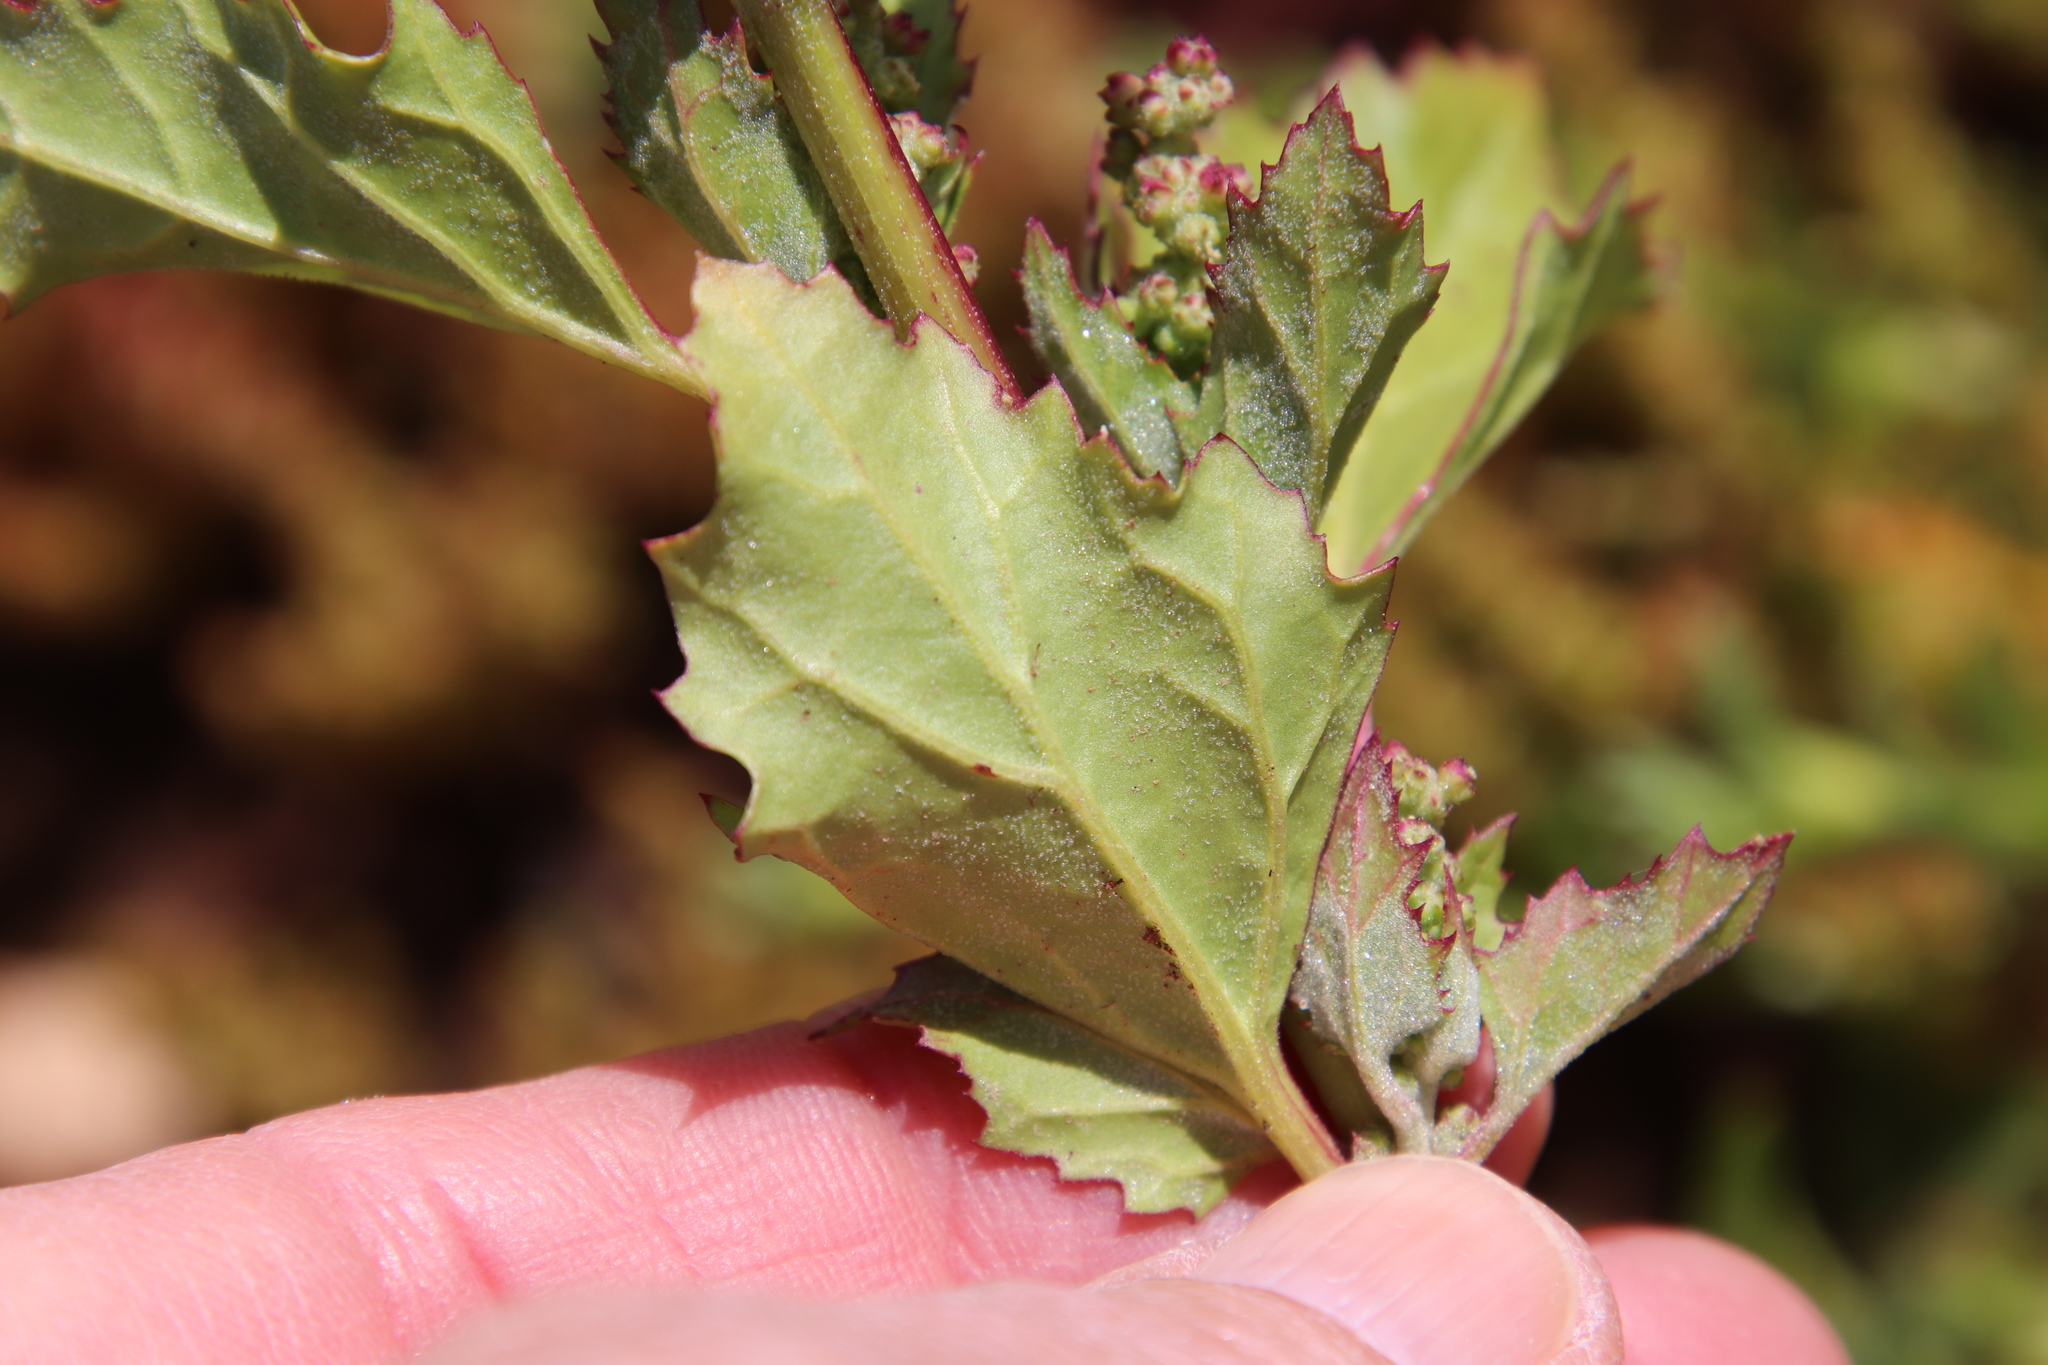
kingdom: Plantae
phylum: Tracheophyta
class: Magnoliopsida
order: Caryophyllales
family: Amaranthaceae
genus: Chenopodiastrum
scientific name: Chenopodiastrum murale
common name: Sowbane
